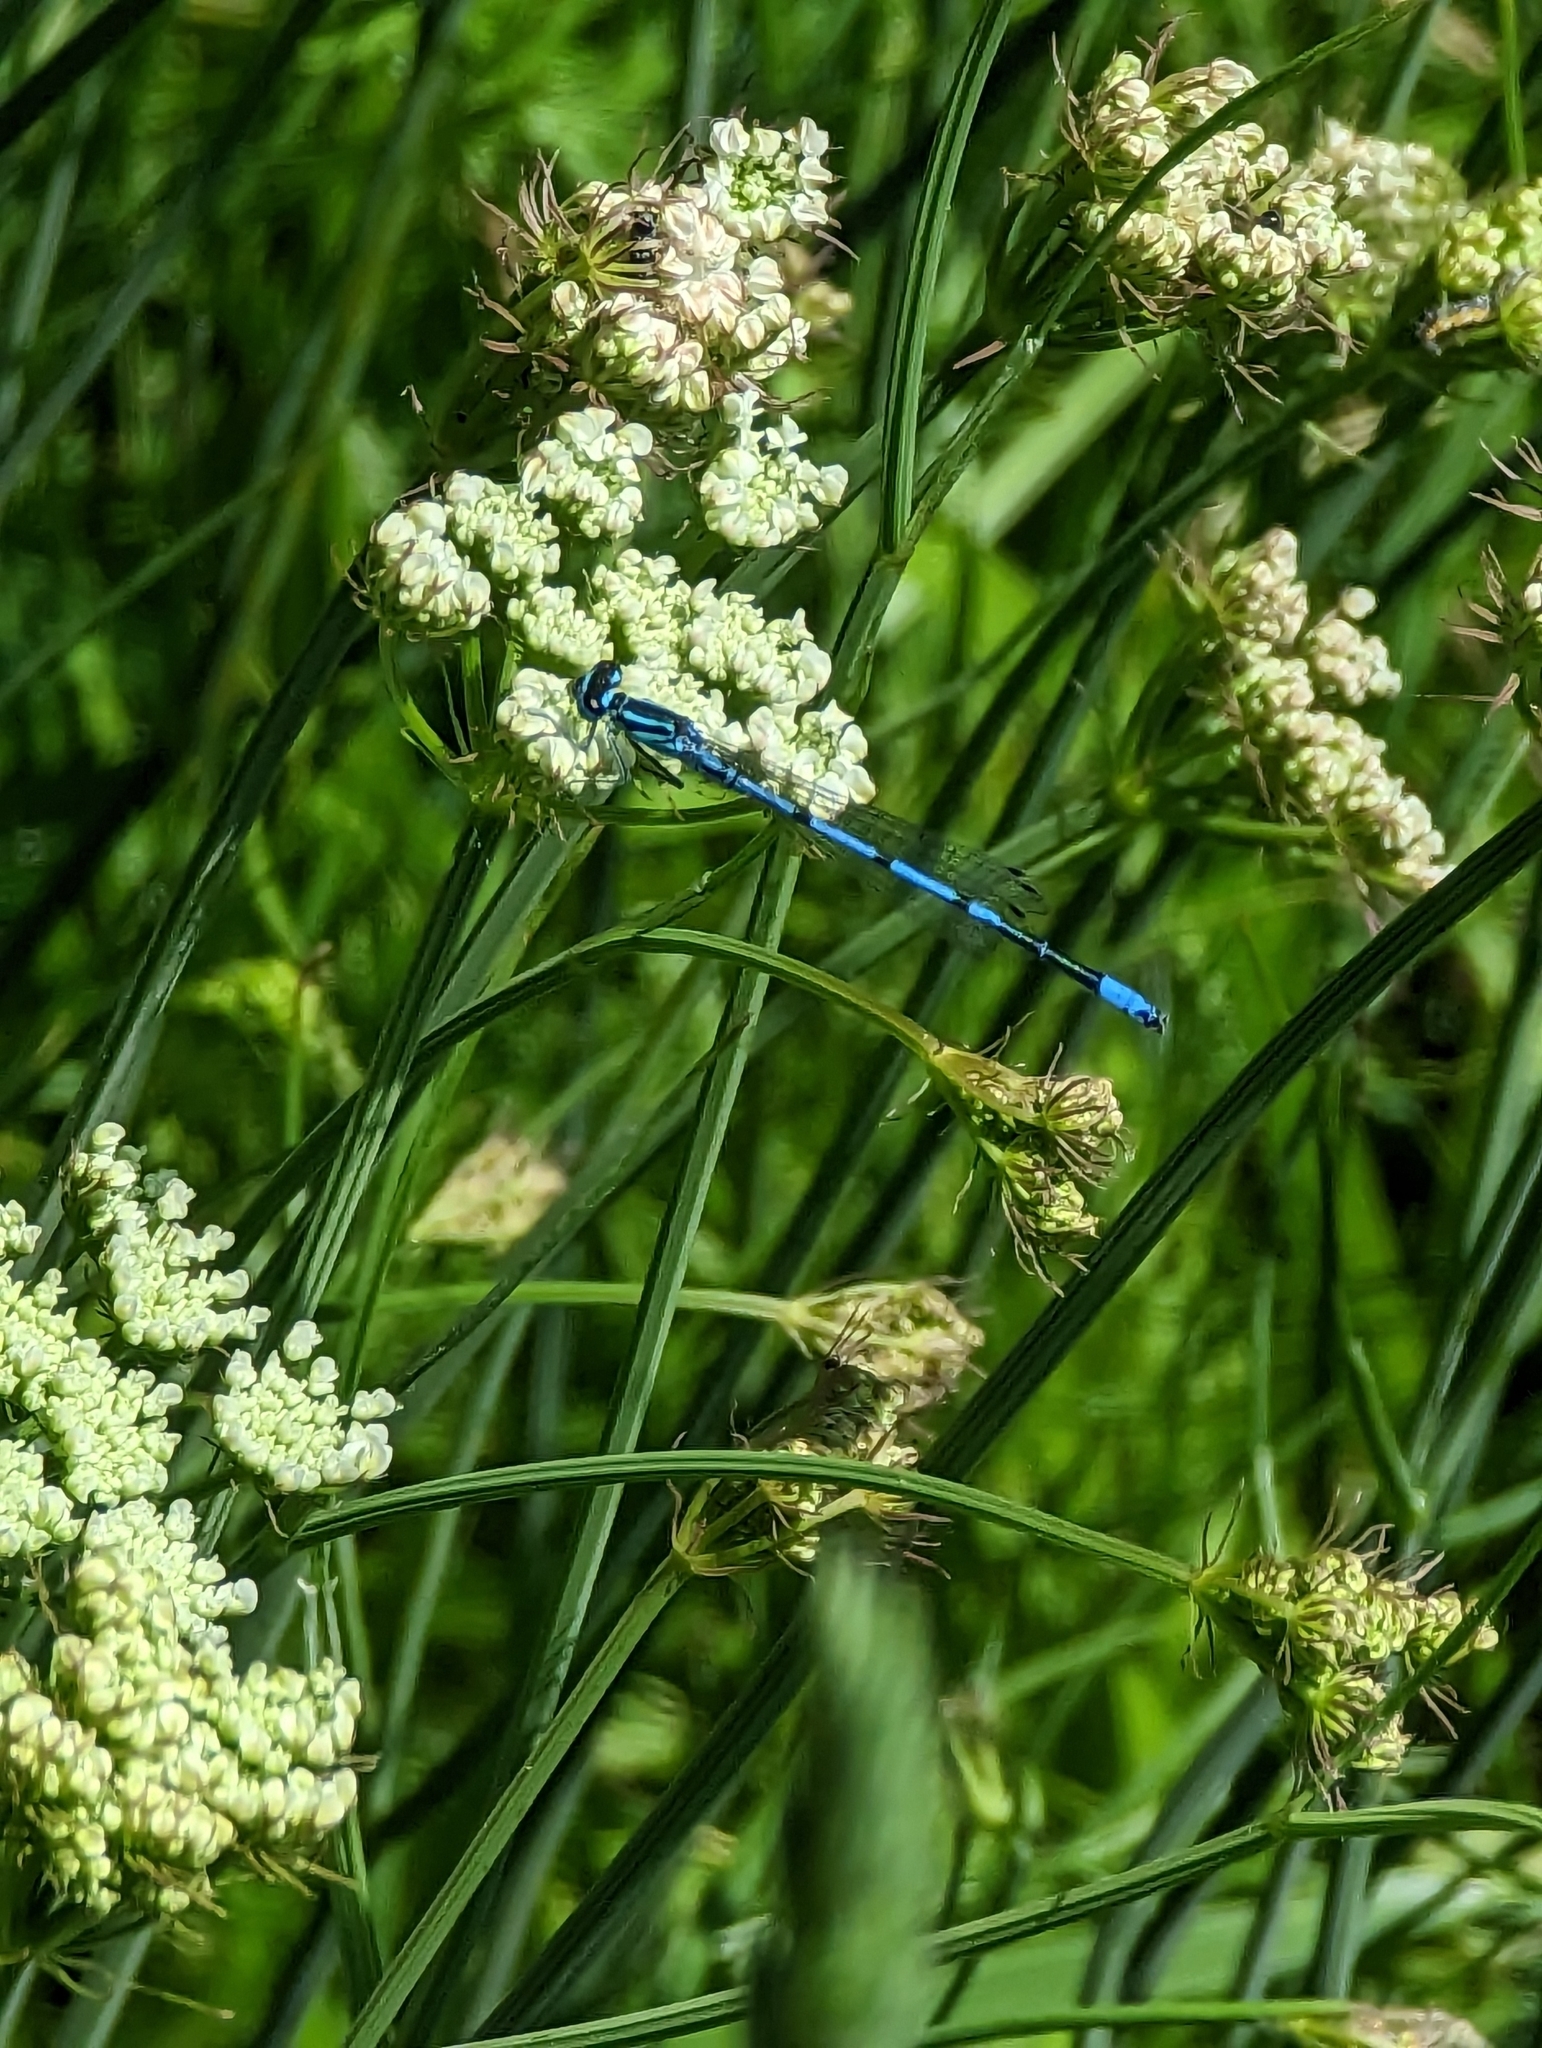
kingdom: Animalia
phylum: Arthropoda
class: Insecta
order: Odonata
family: Coenagrionidae
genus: Coenagrion
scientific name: Coenagrion puella
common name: Azure damselfly
